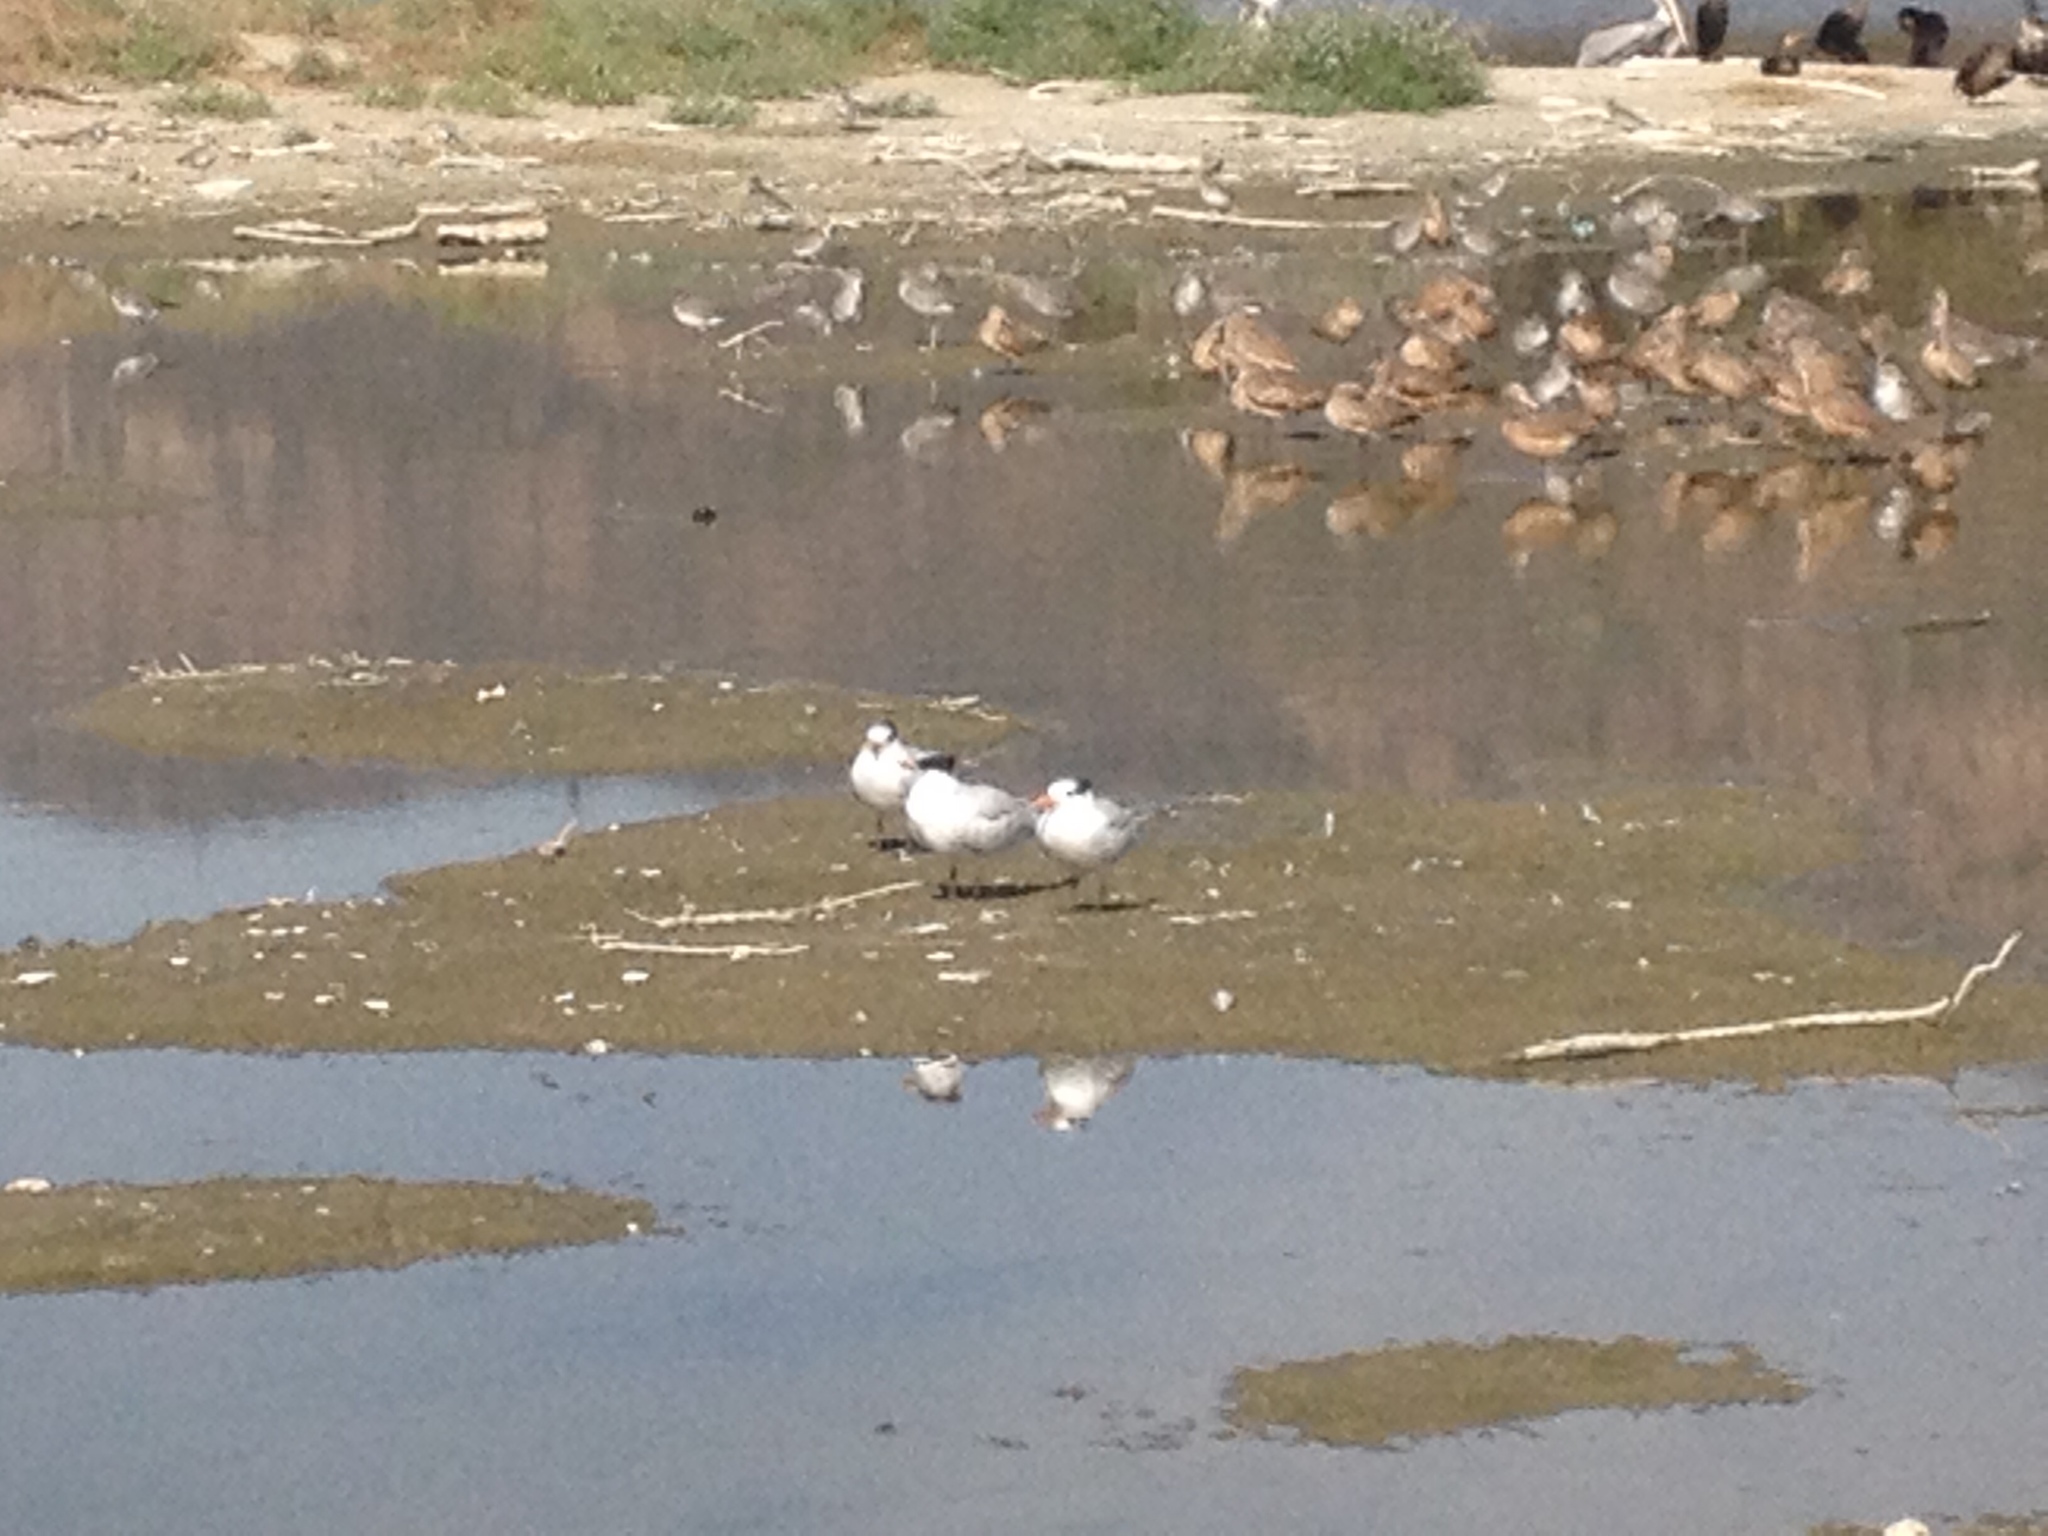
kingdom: Animalia
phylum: Chordata
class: Aves
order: Charadriiformes
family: Laridae
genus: Thalasseus
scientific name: Thalasseus elegans
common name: Elegant tern
